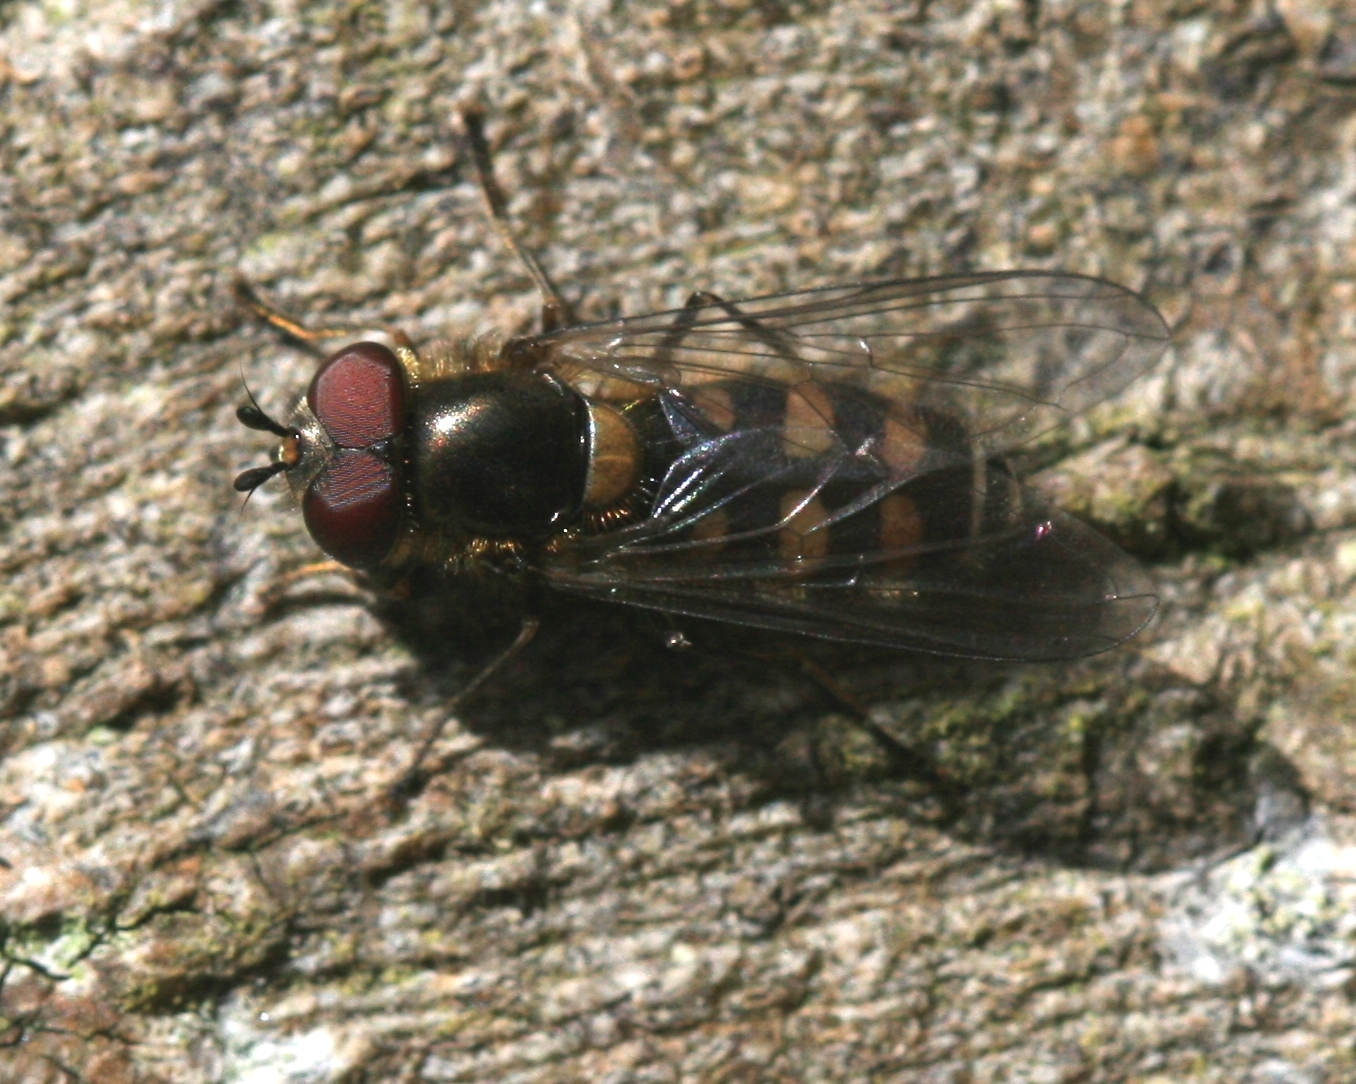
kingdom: Animalia
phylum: Arthropoda
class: Insecta
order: Diptera
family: Syrphidae
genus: Parasyrphus
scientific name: Parasyrphus punctulatus
